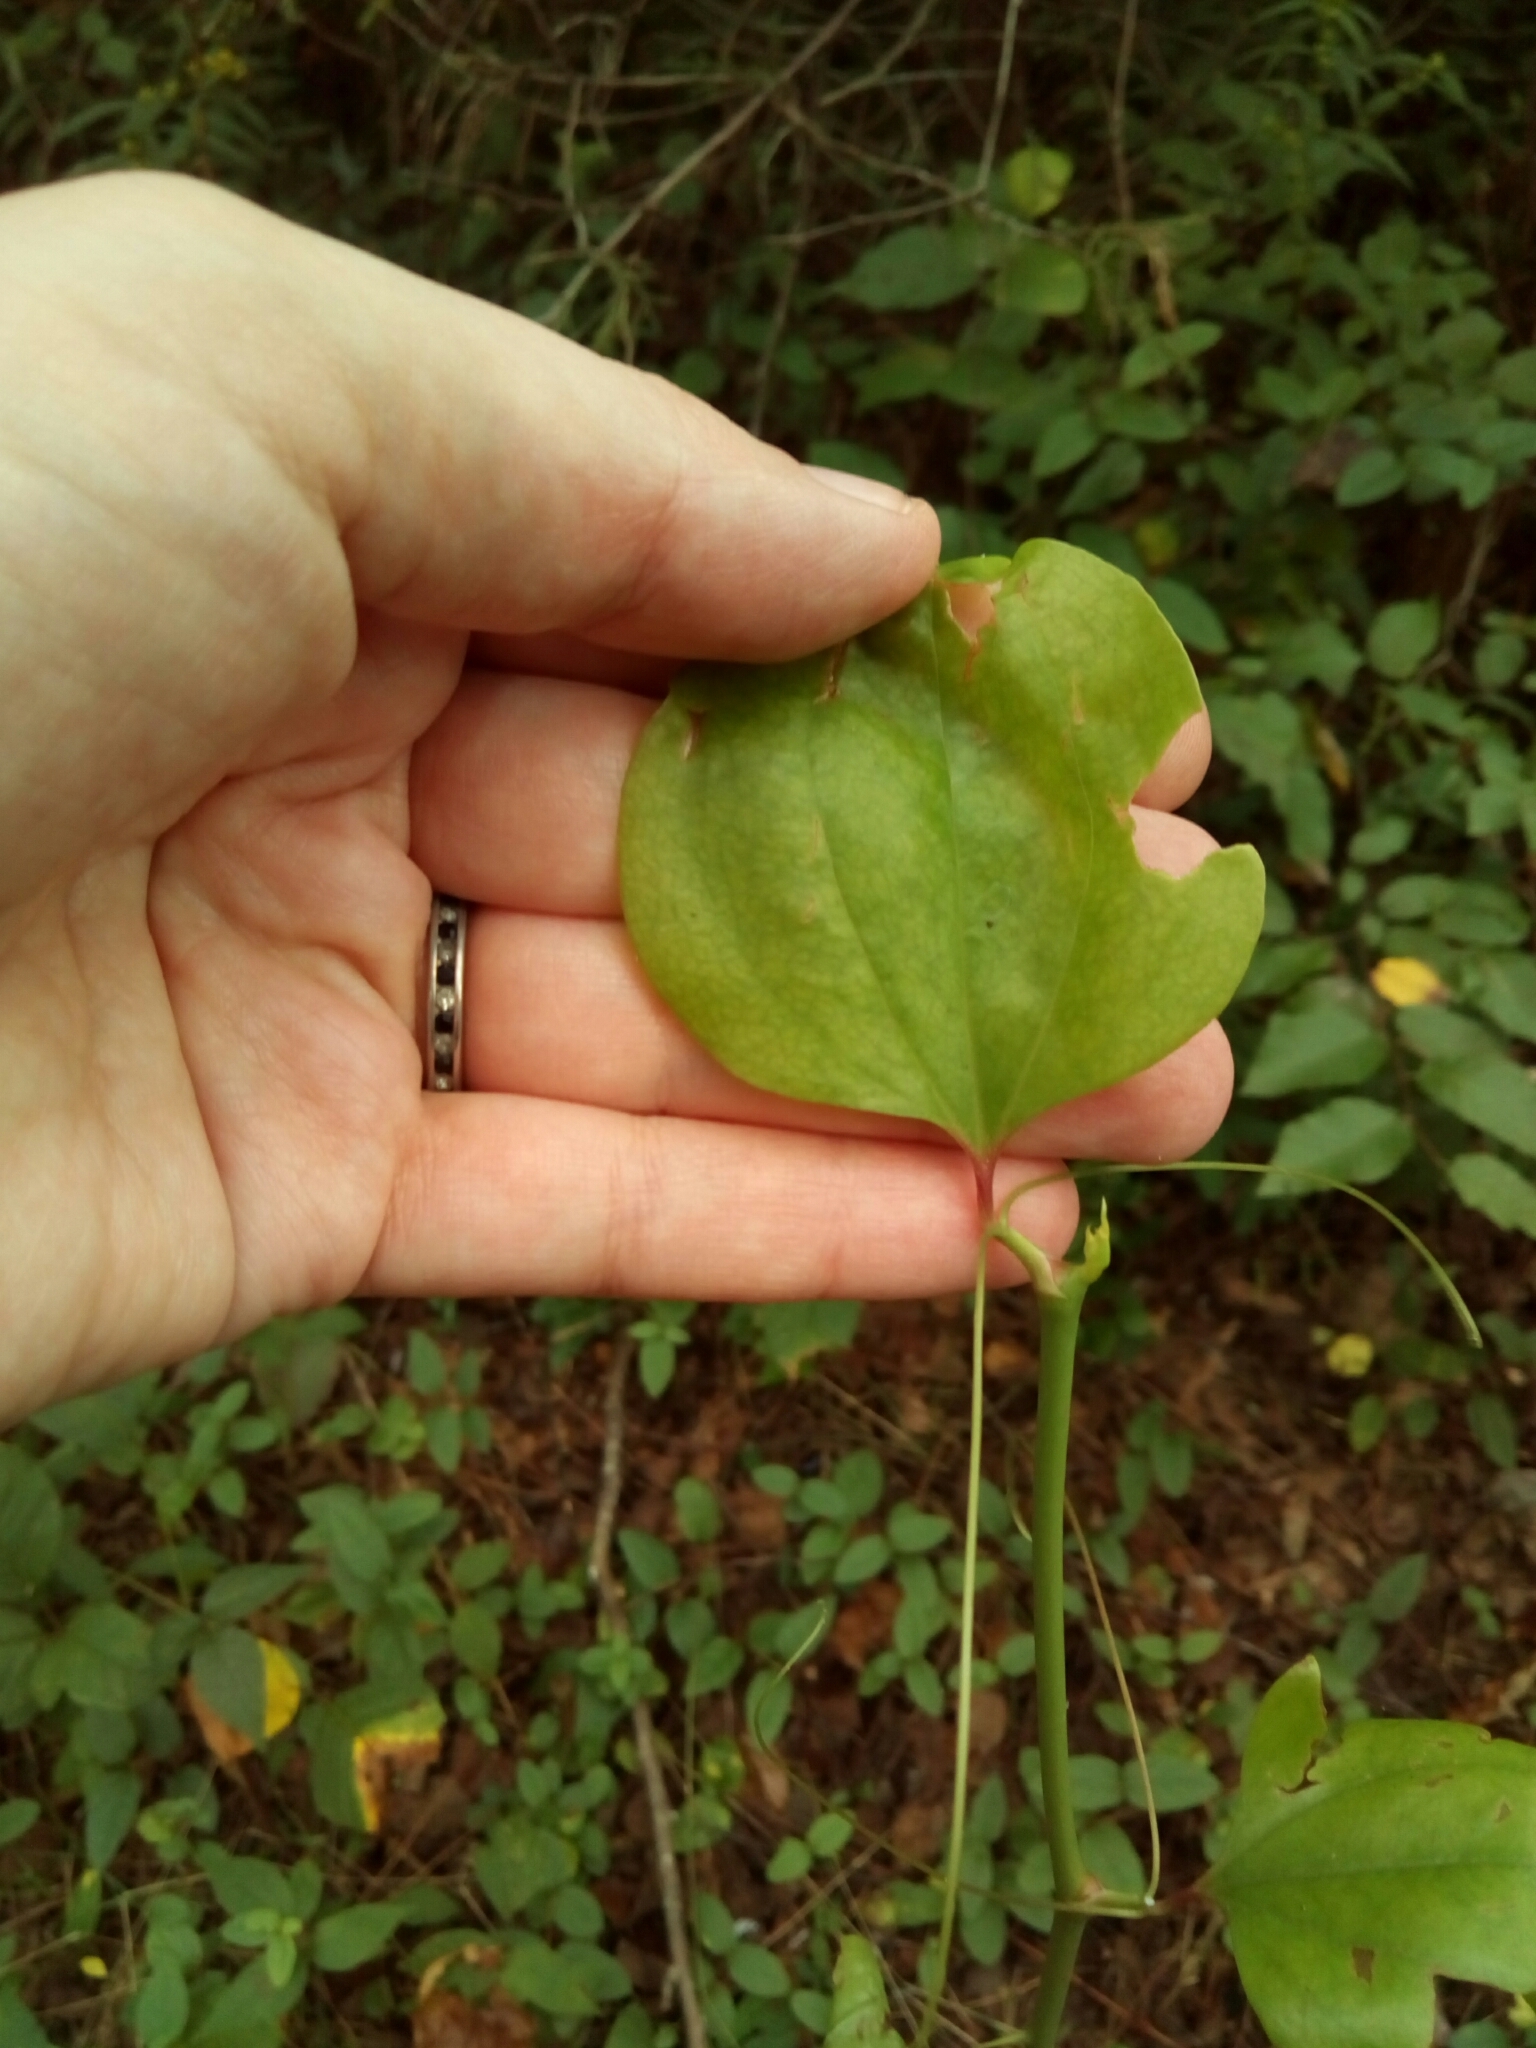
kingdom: Plantae
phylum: Tracheophyta
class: Liliopsida
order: Liliales
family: Smilacaceae
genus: Smilax
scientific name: Smilax rotundifolia
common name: Bullbriar
